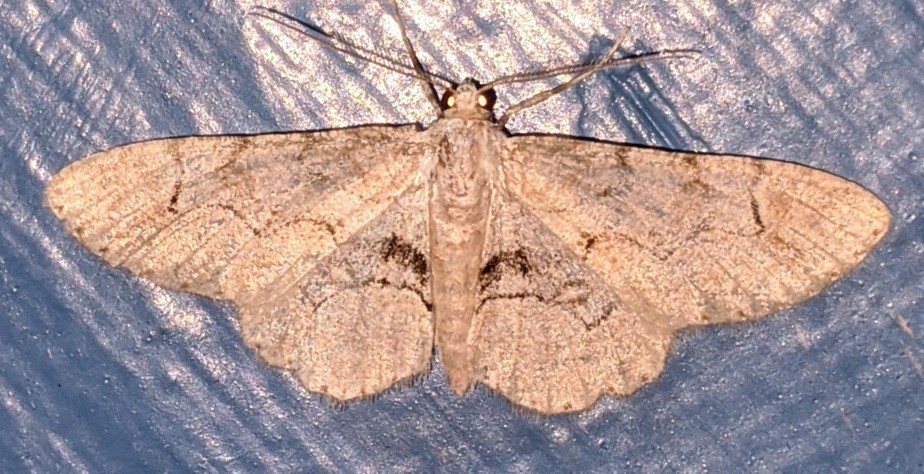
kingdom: Animalia
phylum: Arthropoda
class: Insecta
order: Lepidoptera
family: Geometridae
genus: Iridopsis
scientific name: Iridopsis larvaria
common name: Bent-line gray
